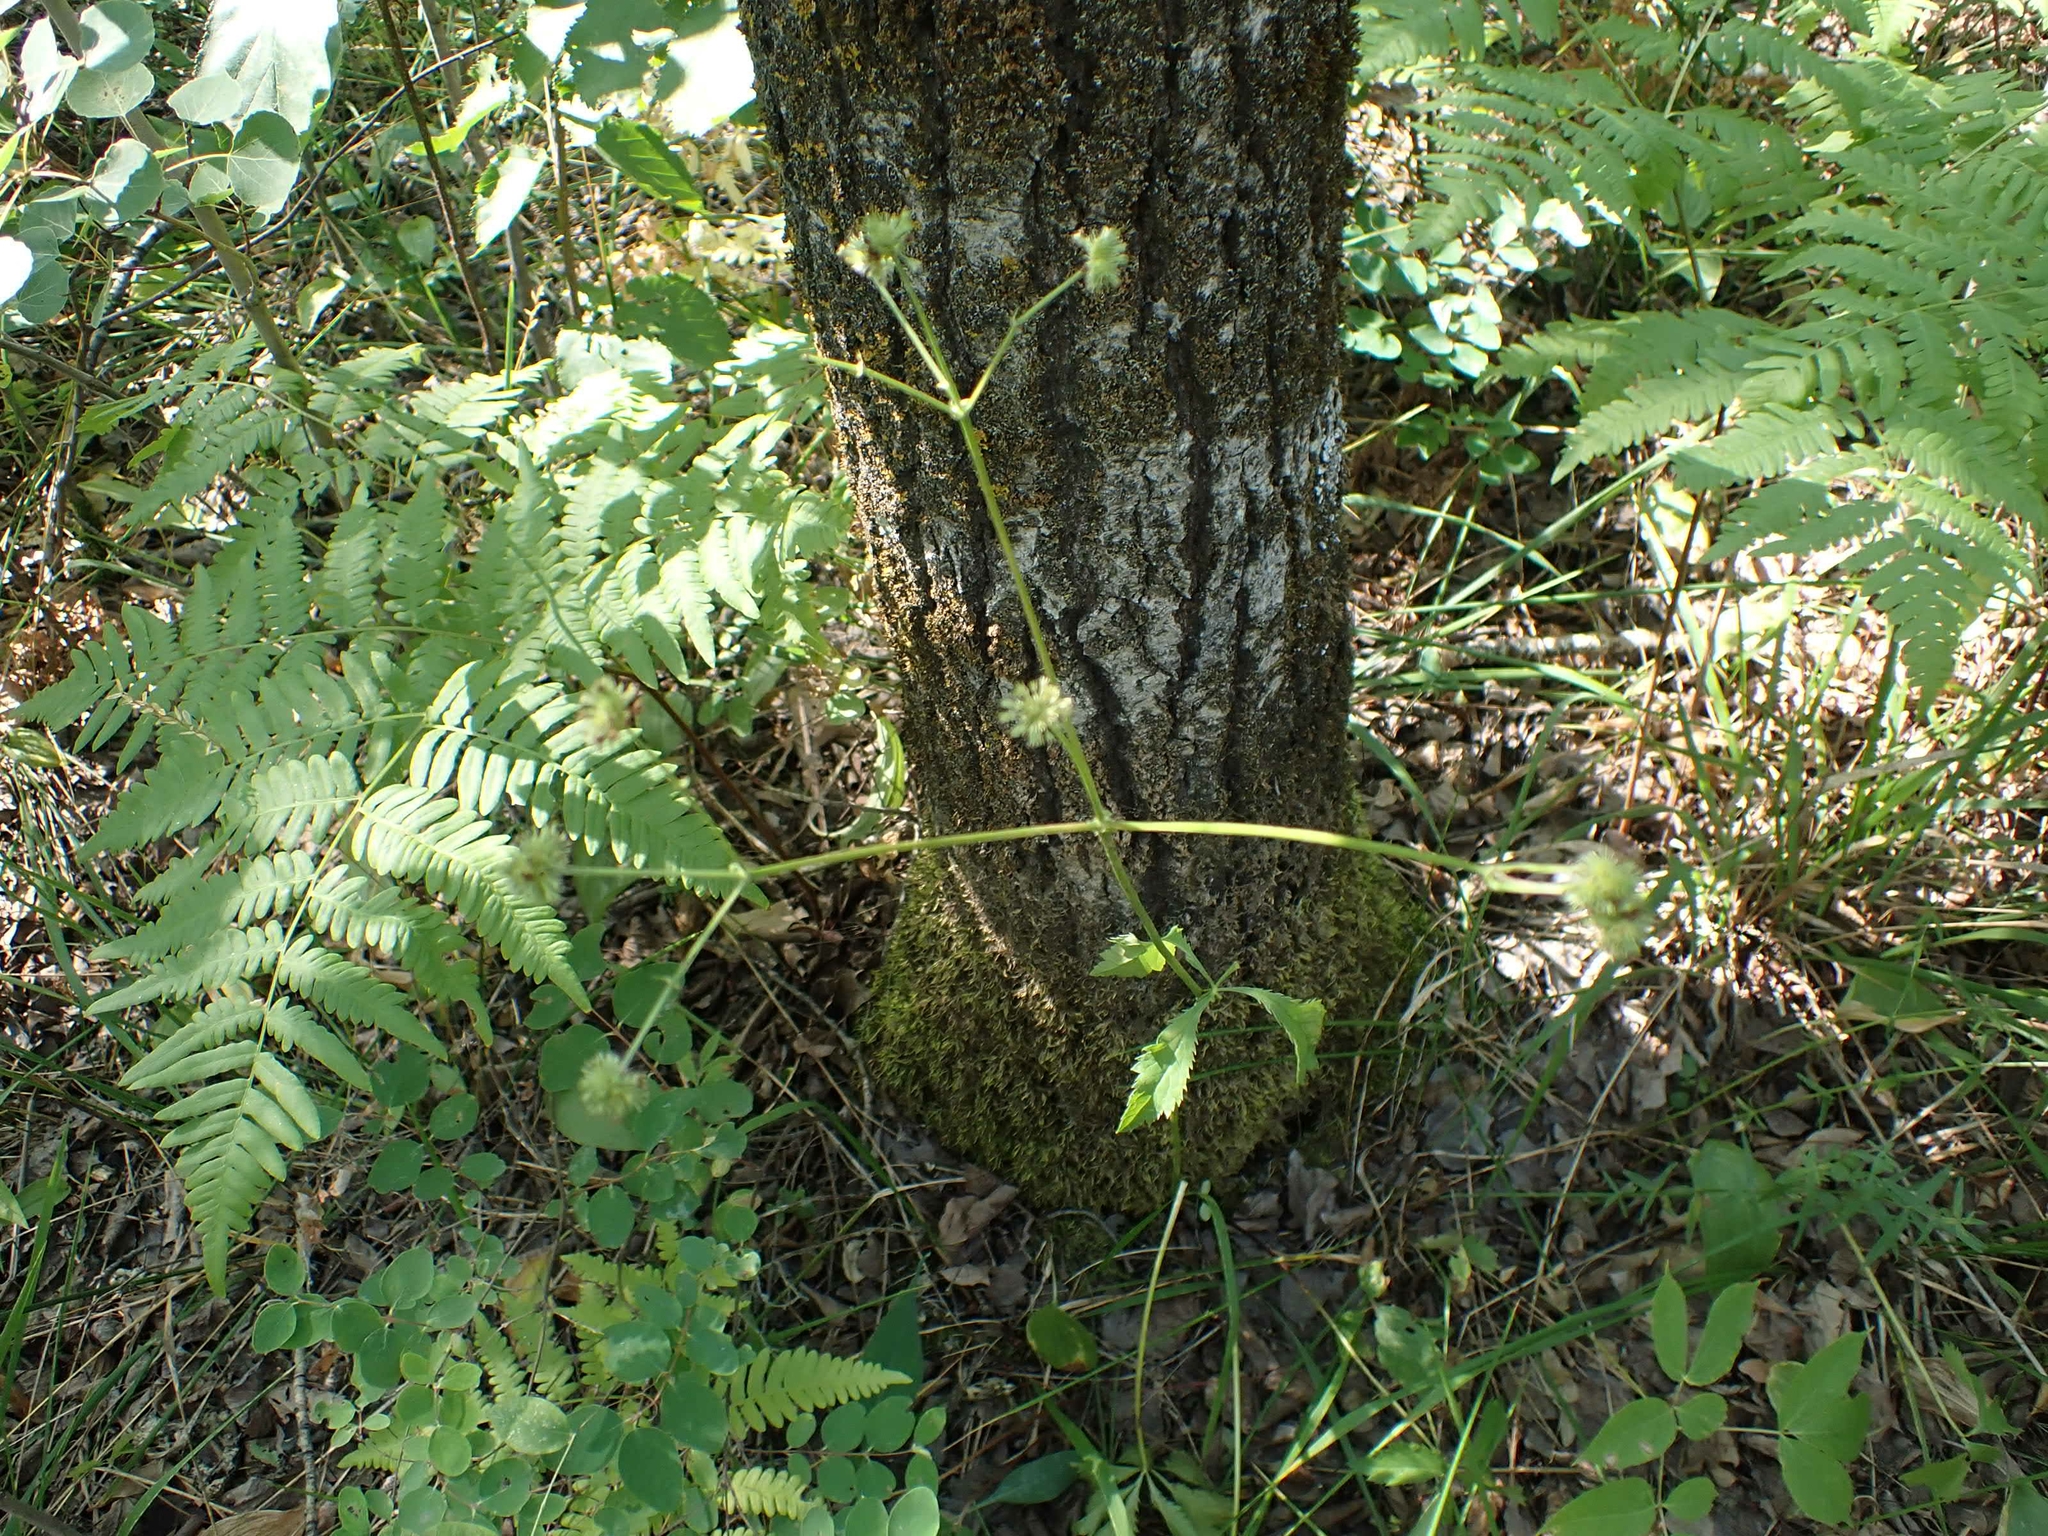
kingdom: Plantae
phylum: Tracheophyta
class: Magnoliopsida
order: Apiales
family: Apiaceae
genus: Sanicula
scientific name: Sanicula marilandica
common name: Black snakeroot
